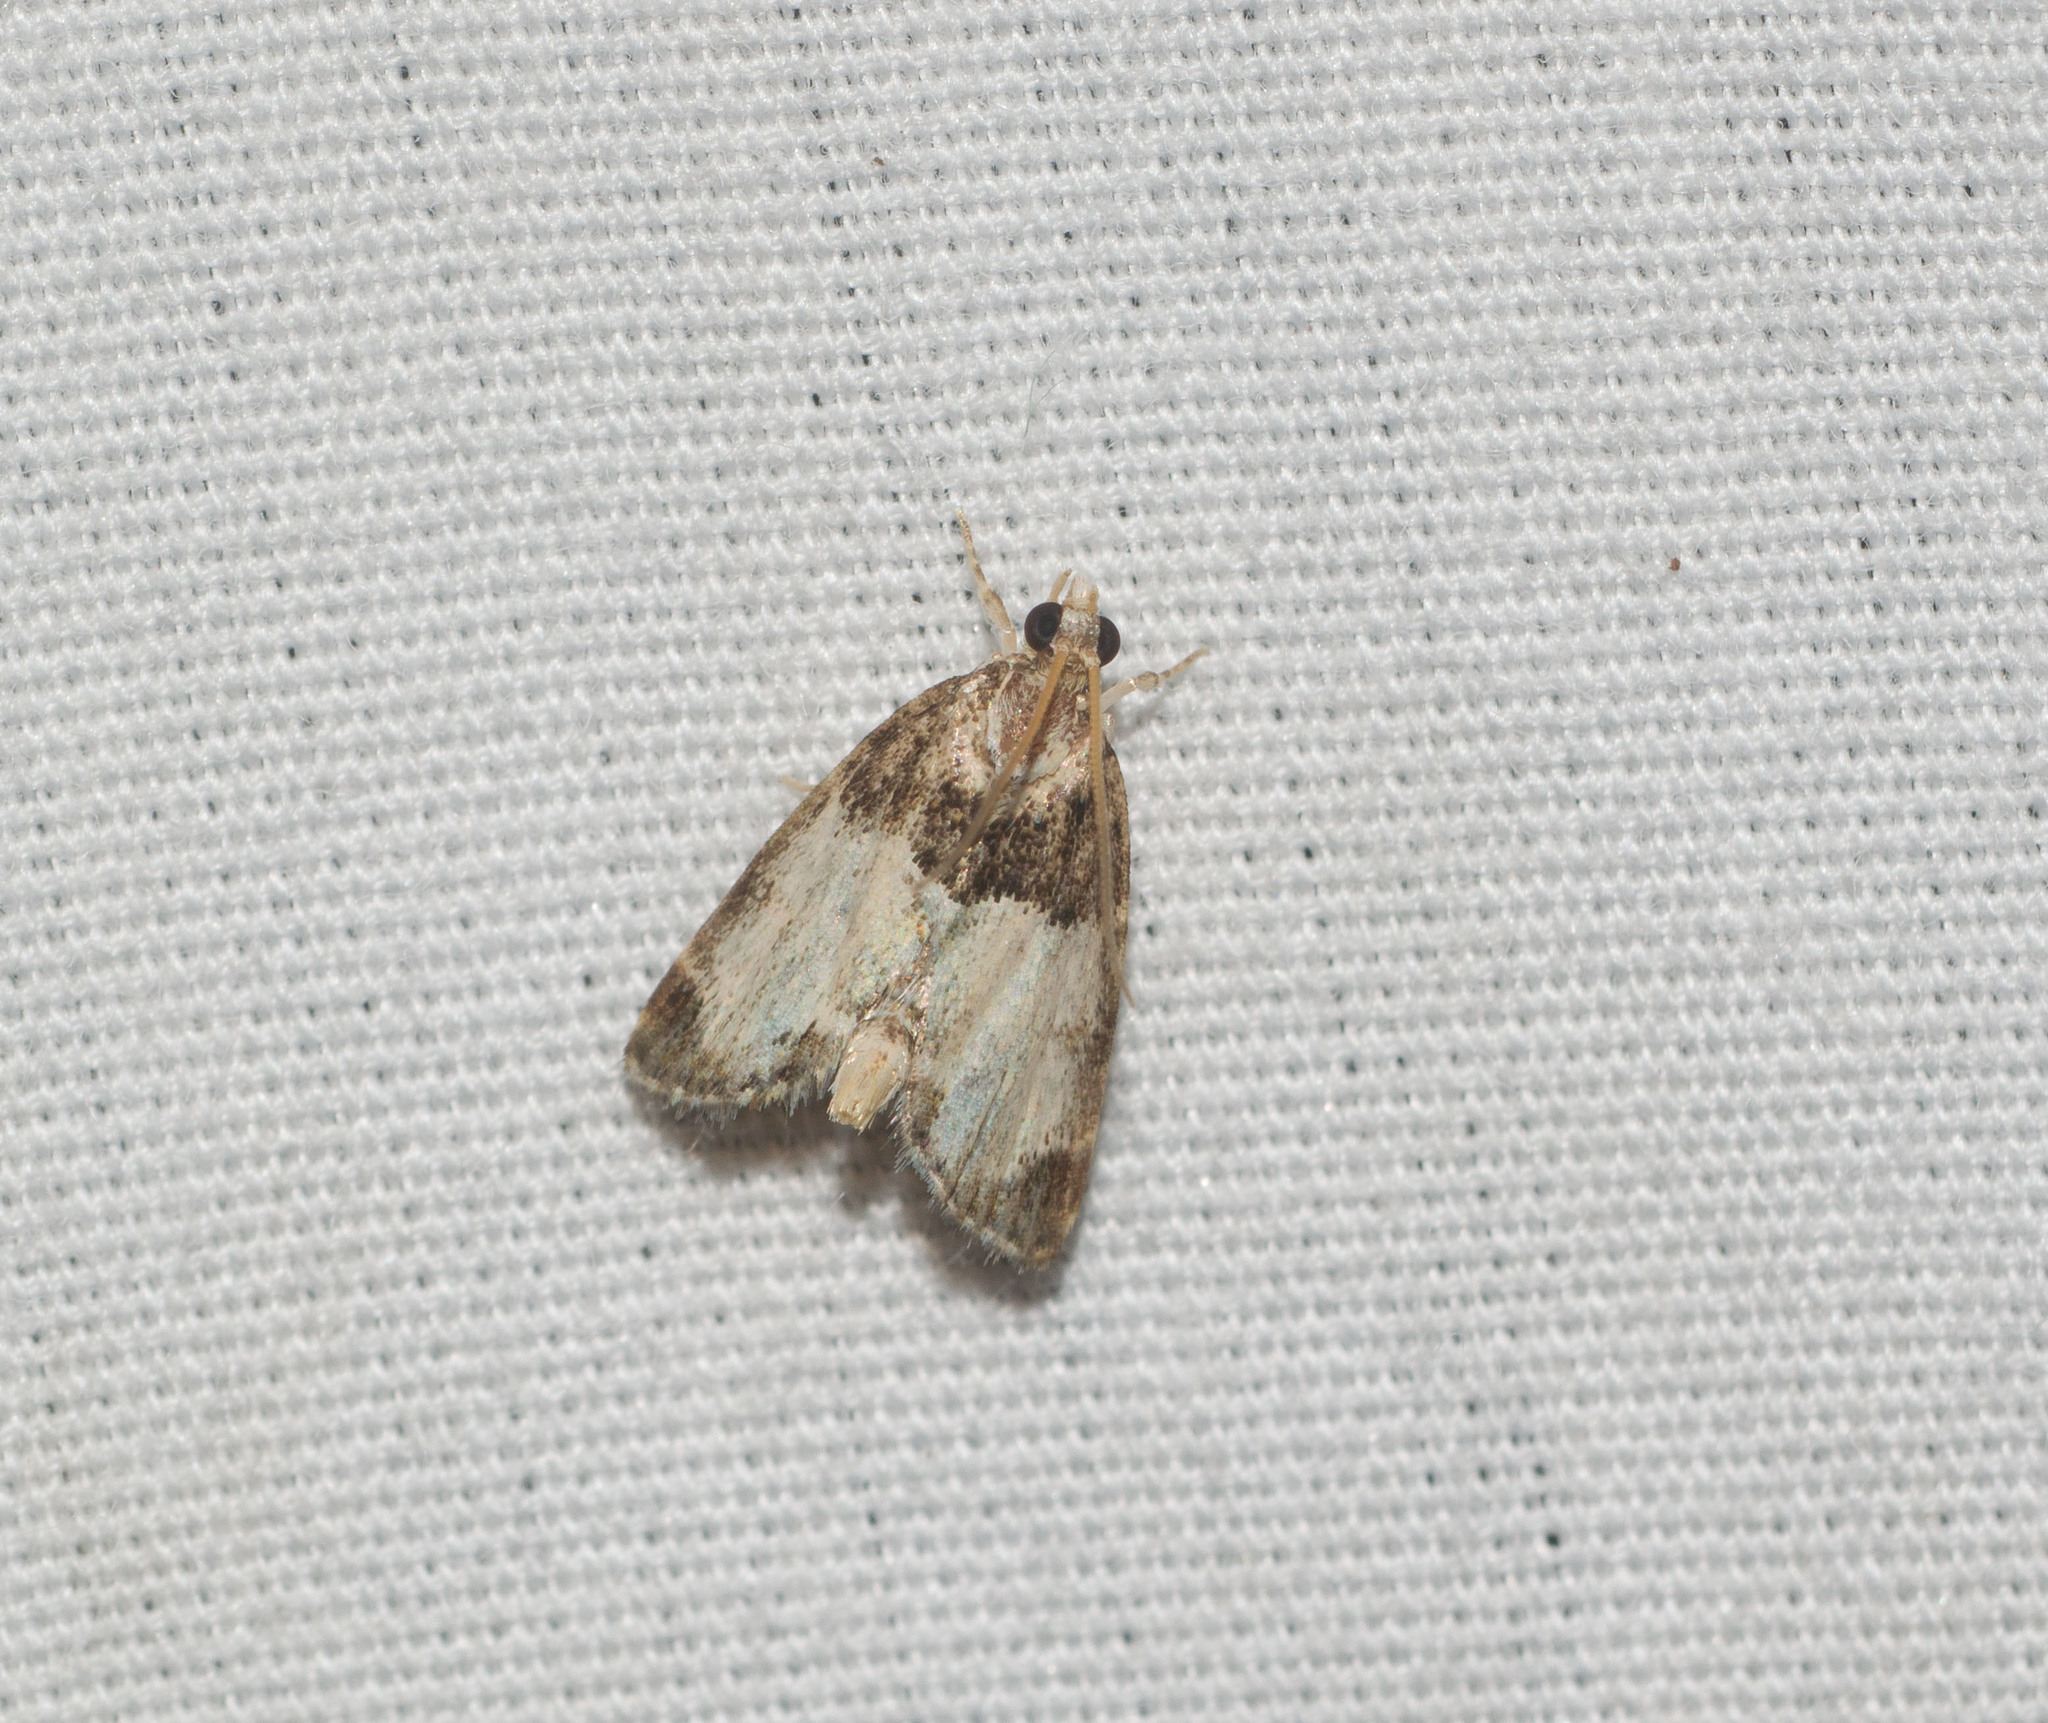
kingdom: Animalia
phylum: Arthropoda
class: Insecta
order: Lepidoptera
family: Crambidae
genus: Mestolobes
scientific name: Mestolobes abnormis
